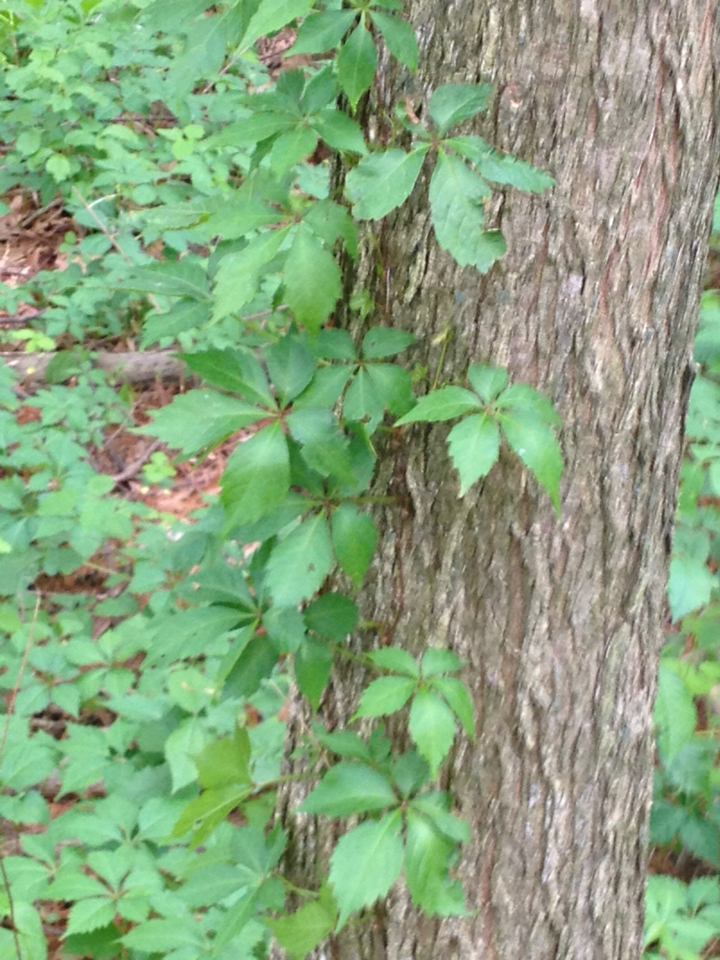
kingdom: Plantae
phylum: Tracheophyta
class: Magnoliopsida
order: Vitales
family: Vitaceae
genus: Parthenocissus
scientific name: Parthenocissus quinquefolia
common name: Virginia-creeper
